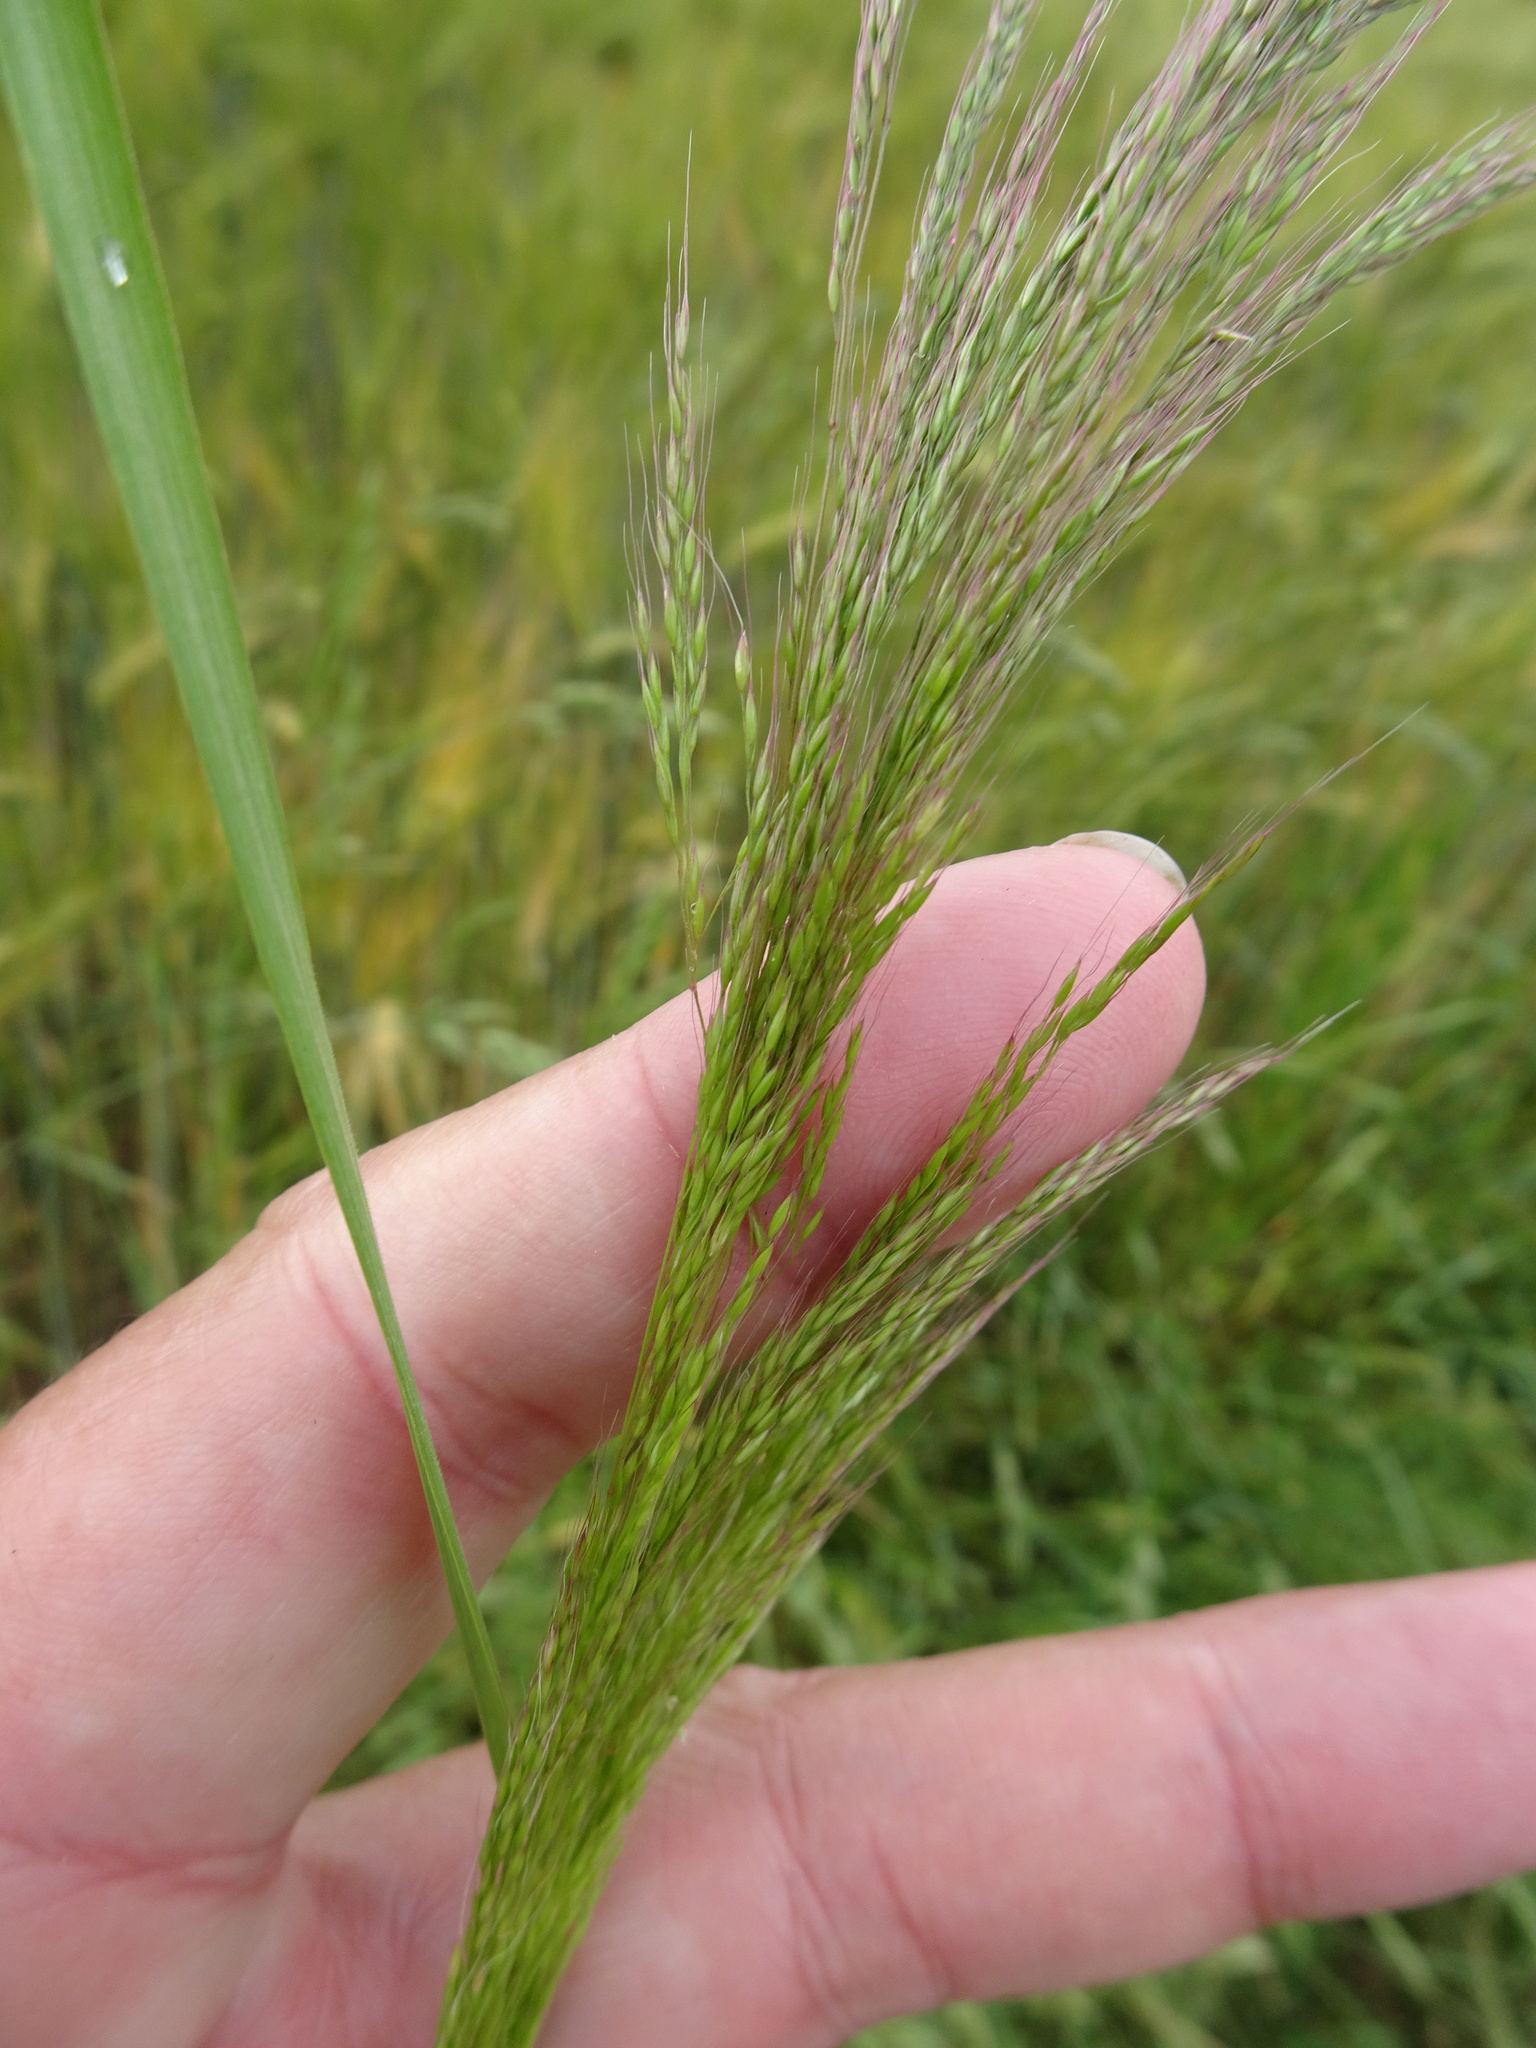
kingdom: Plantae
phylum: Tracheophyta
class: Liliopsida
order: Poales
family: Poaceae
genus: Apera
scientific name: Apera spica-venti
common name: Loose silky-bent
